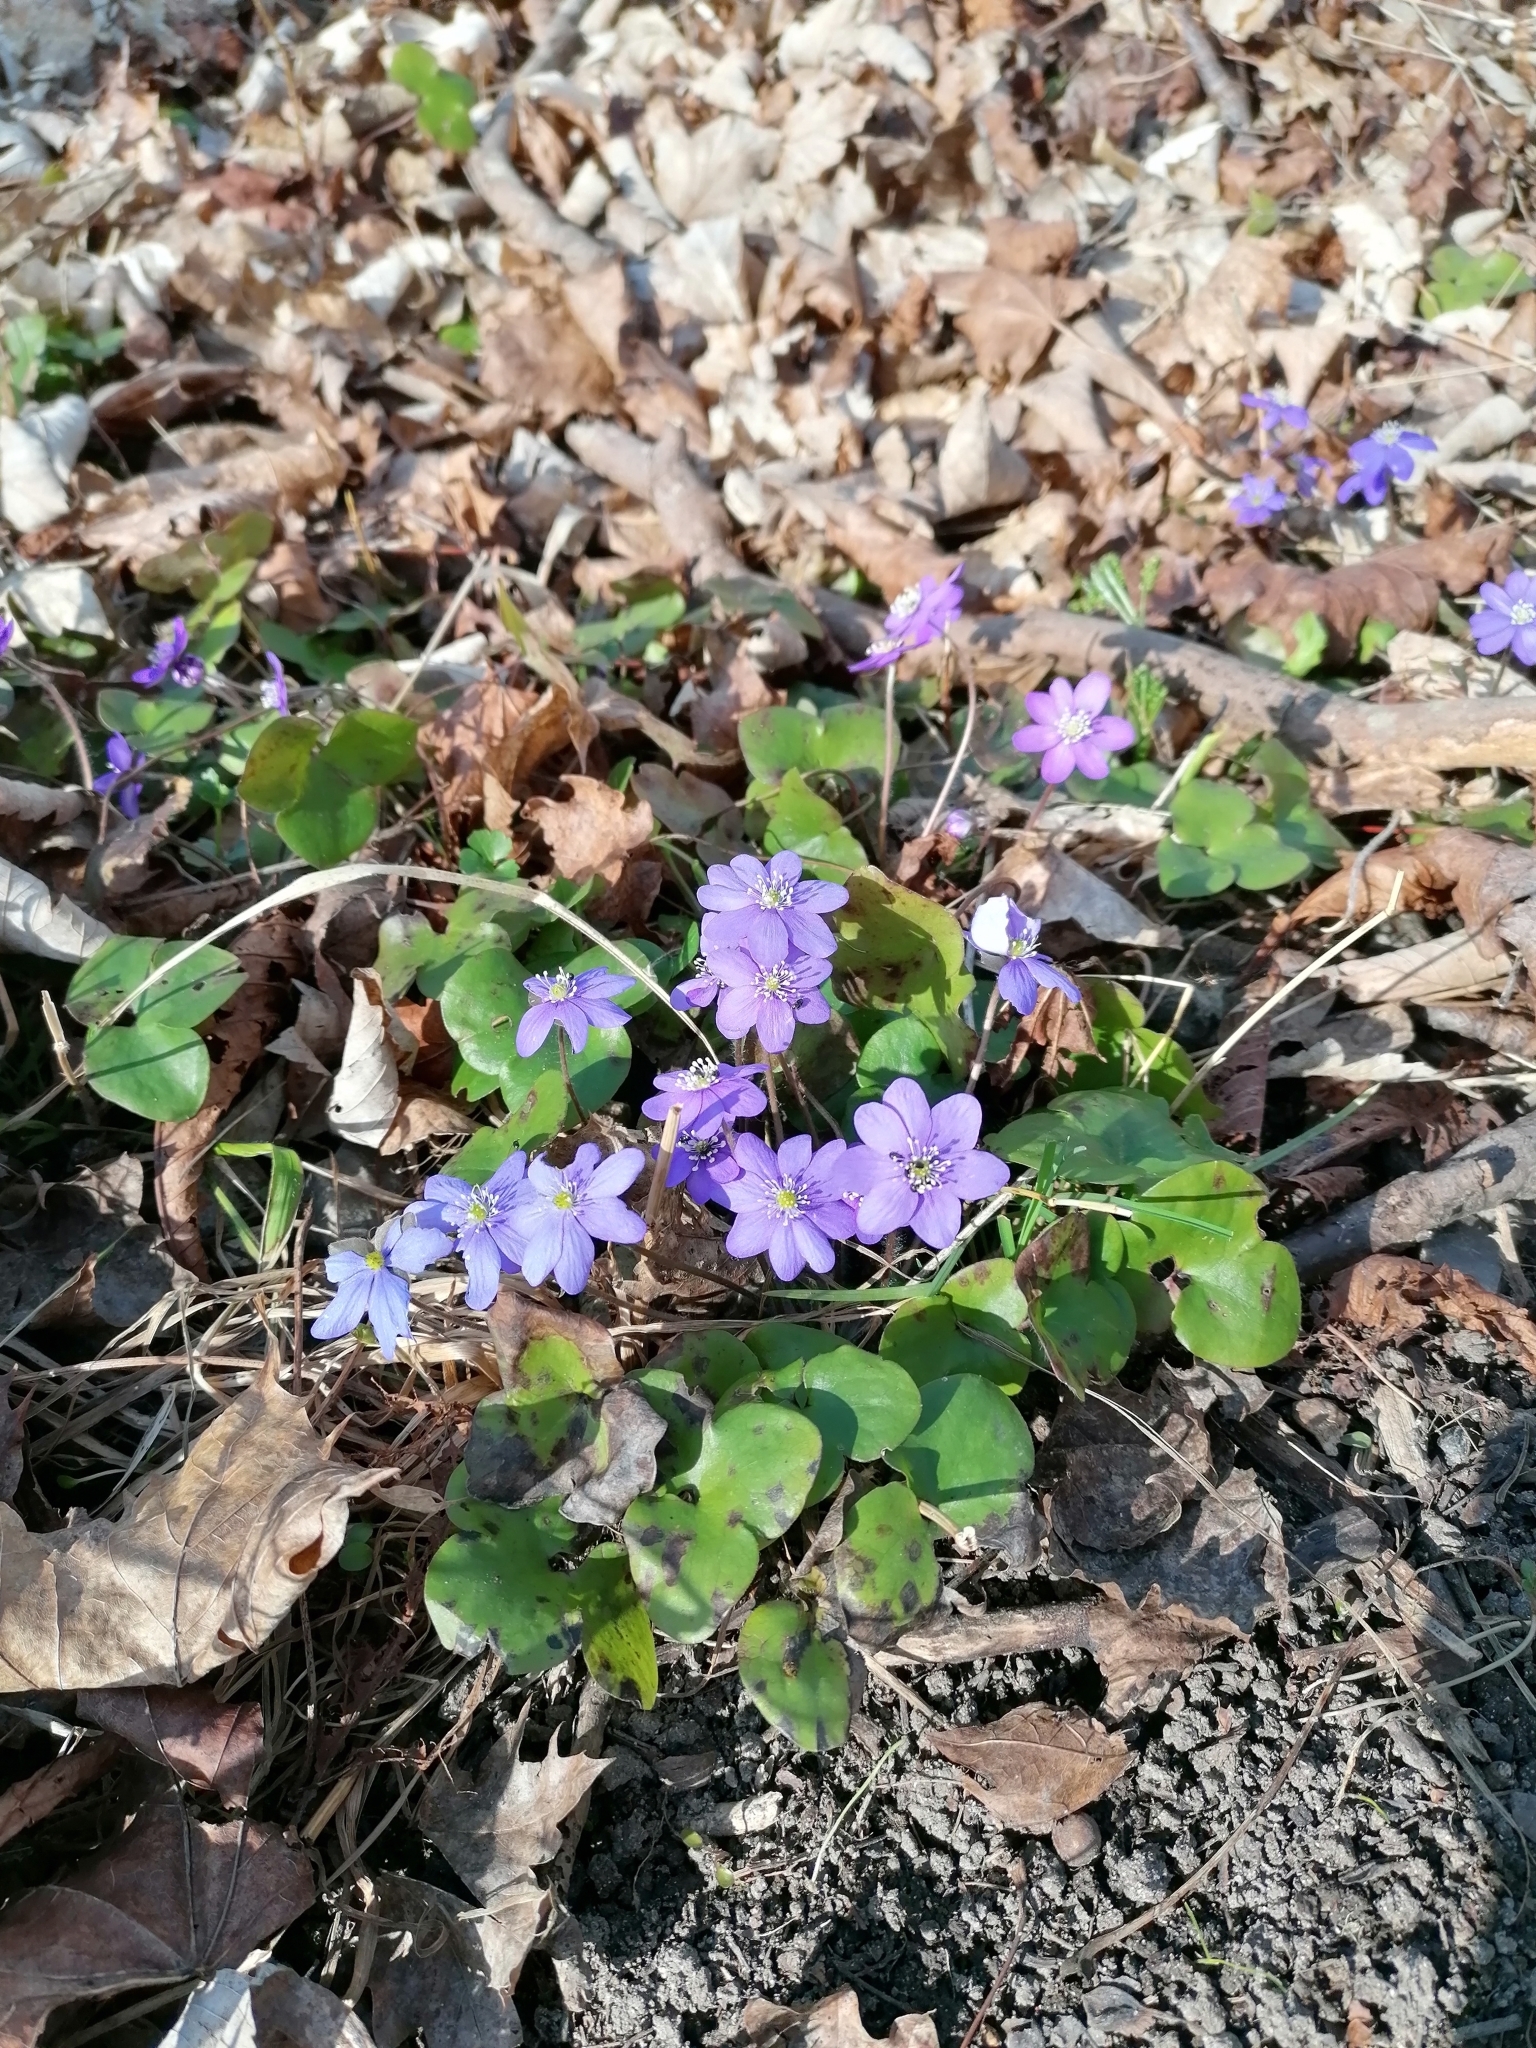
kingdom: Plantae
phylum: Tracheophyta
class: Magnoliopsida
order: Ranunculales
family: Ranunculaceae
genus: Hepatica
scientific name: Hepatica nobilis
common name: Liverleaf
